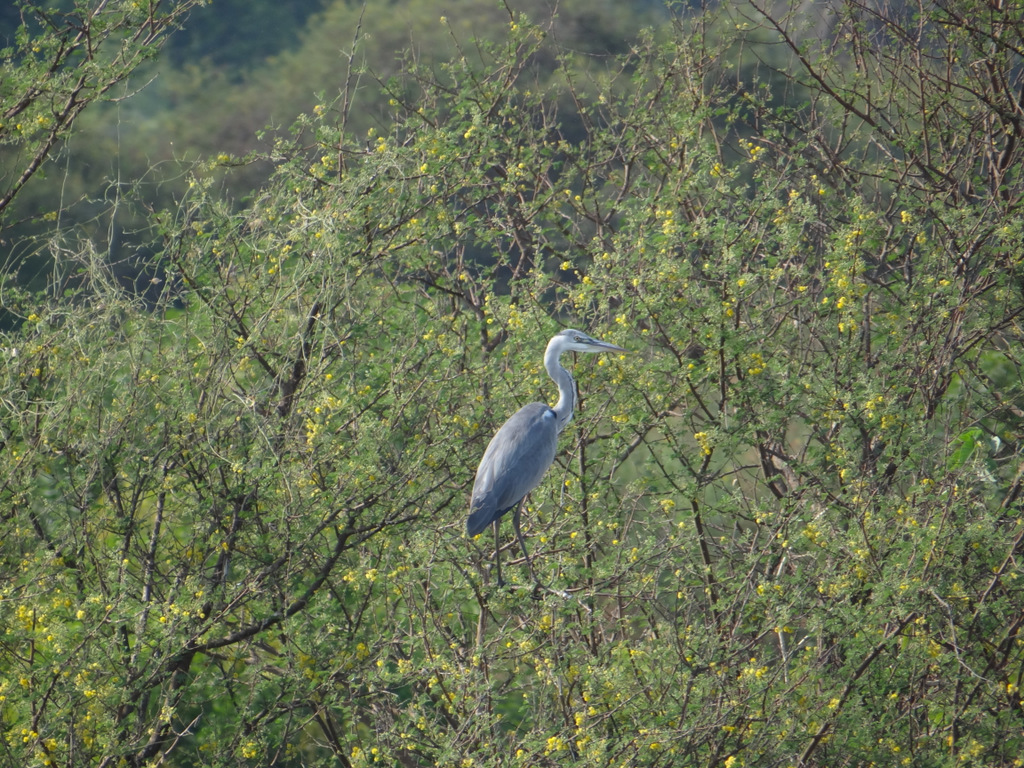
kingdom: Animalia
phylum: Chordata
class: Aves
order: Pelecaniformes
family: Ardeidae
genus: Ardea
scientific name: Ardea cinerea
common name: Grey heron
